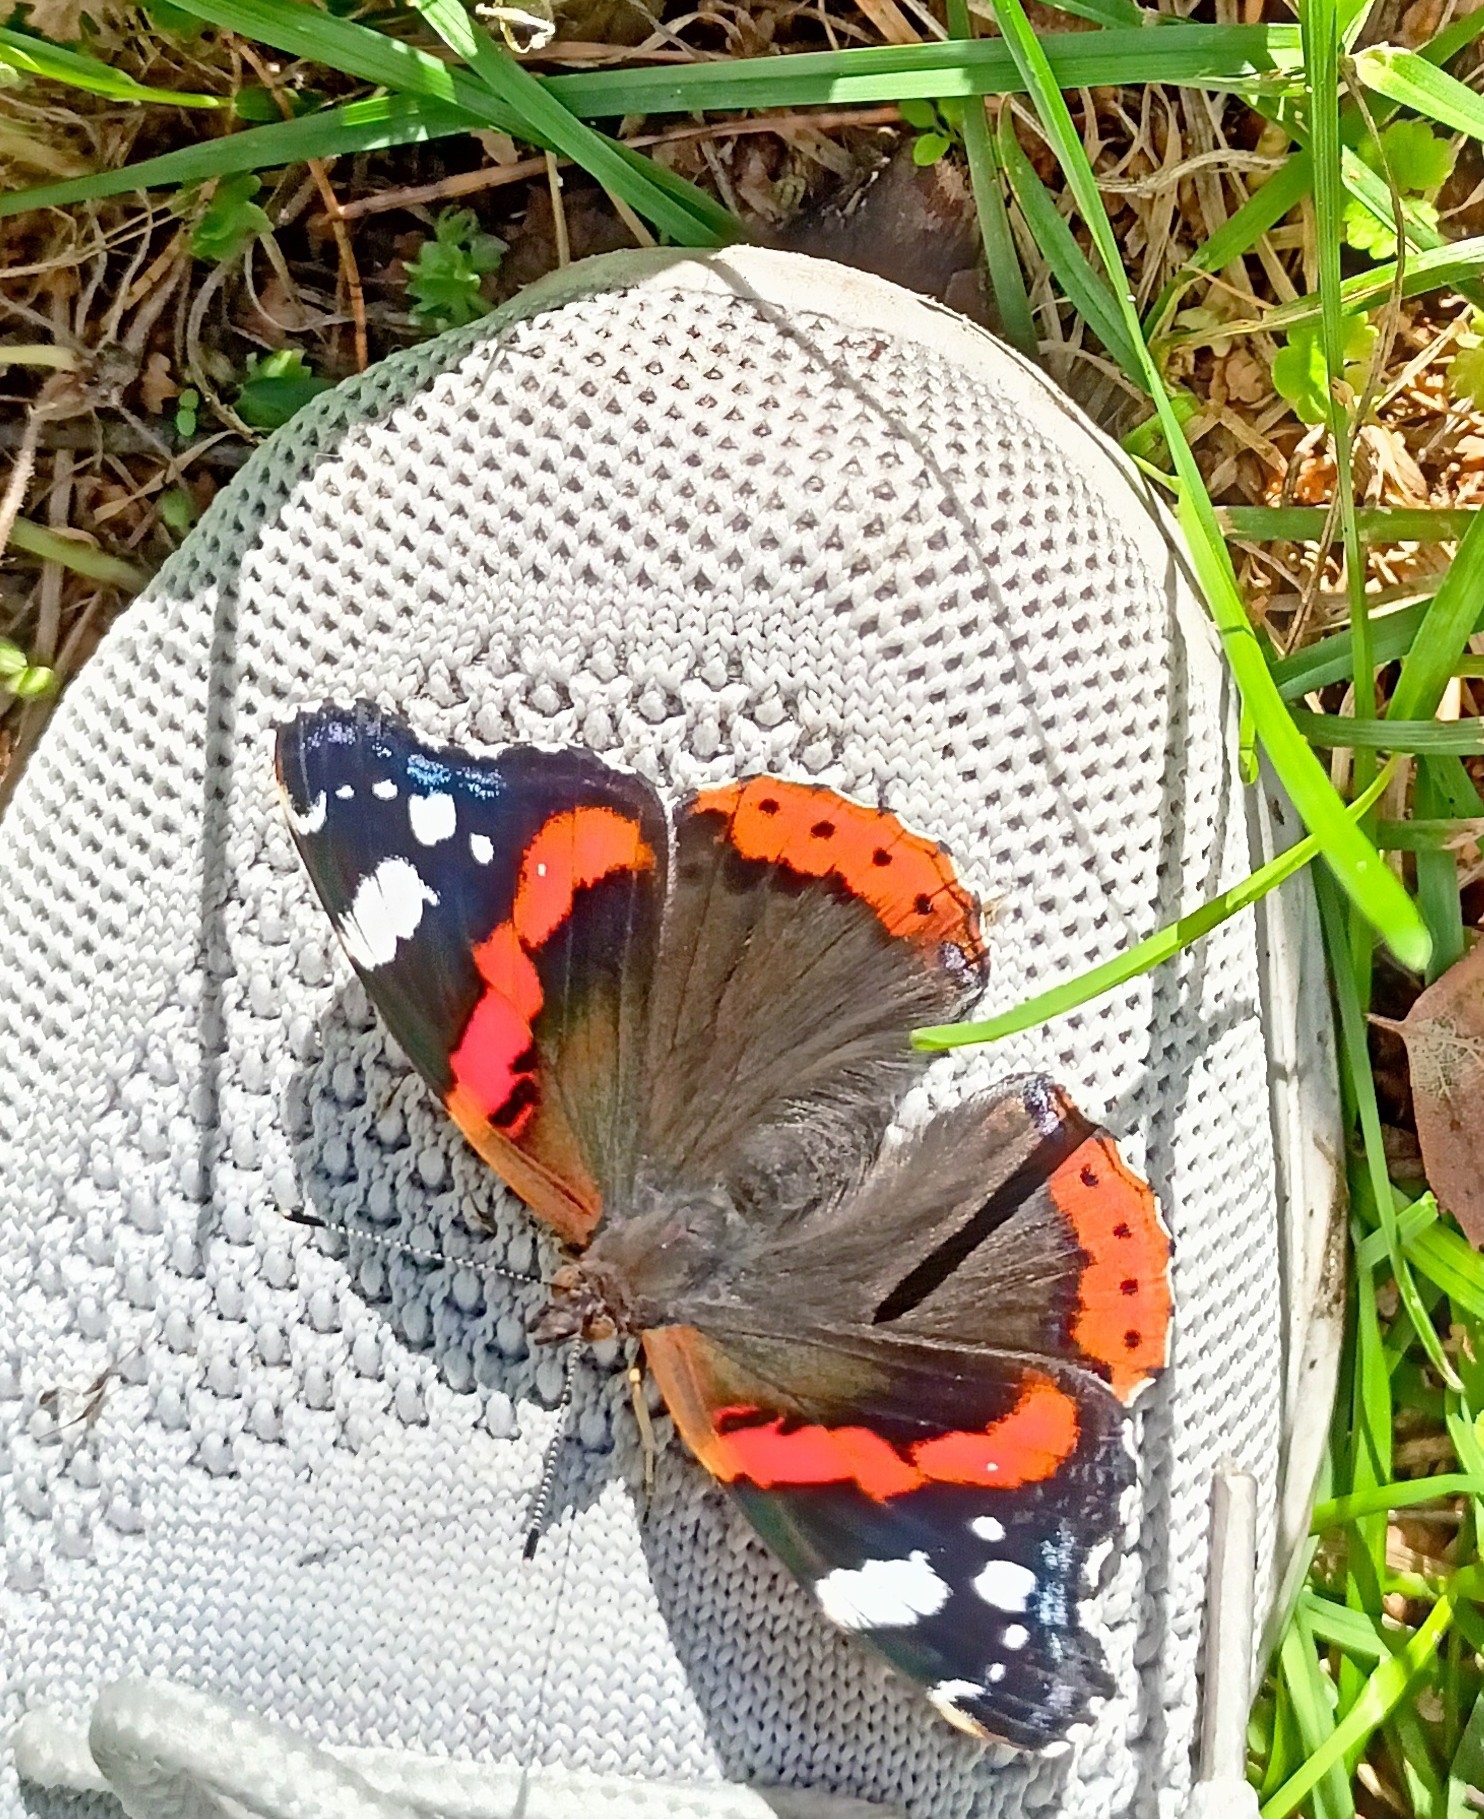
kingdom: Animalia
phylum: Arthropoda
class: Insecta
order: Lepidoptera
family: Nymphalidae
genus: Vanessa
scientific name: Vanessa atalanta
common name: Red admiral
